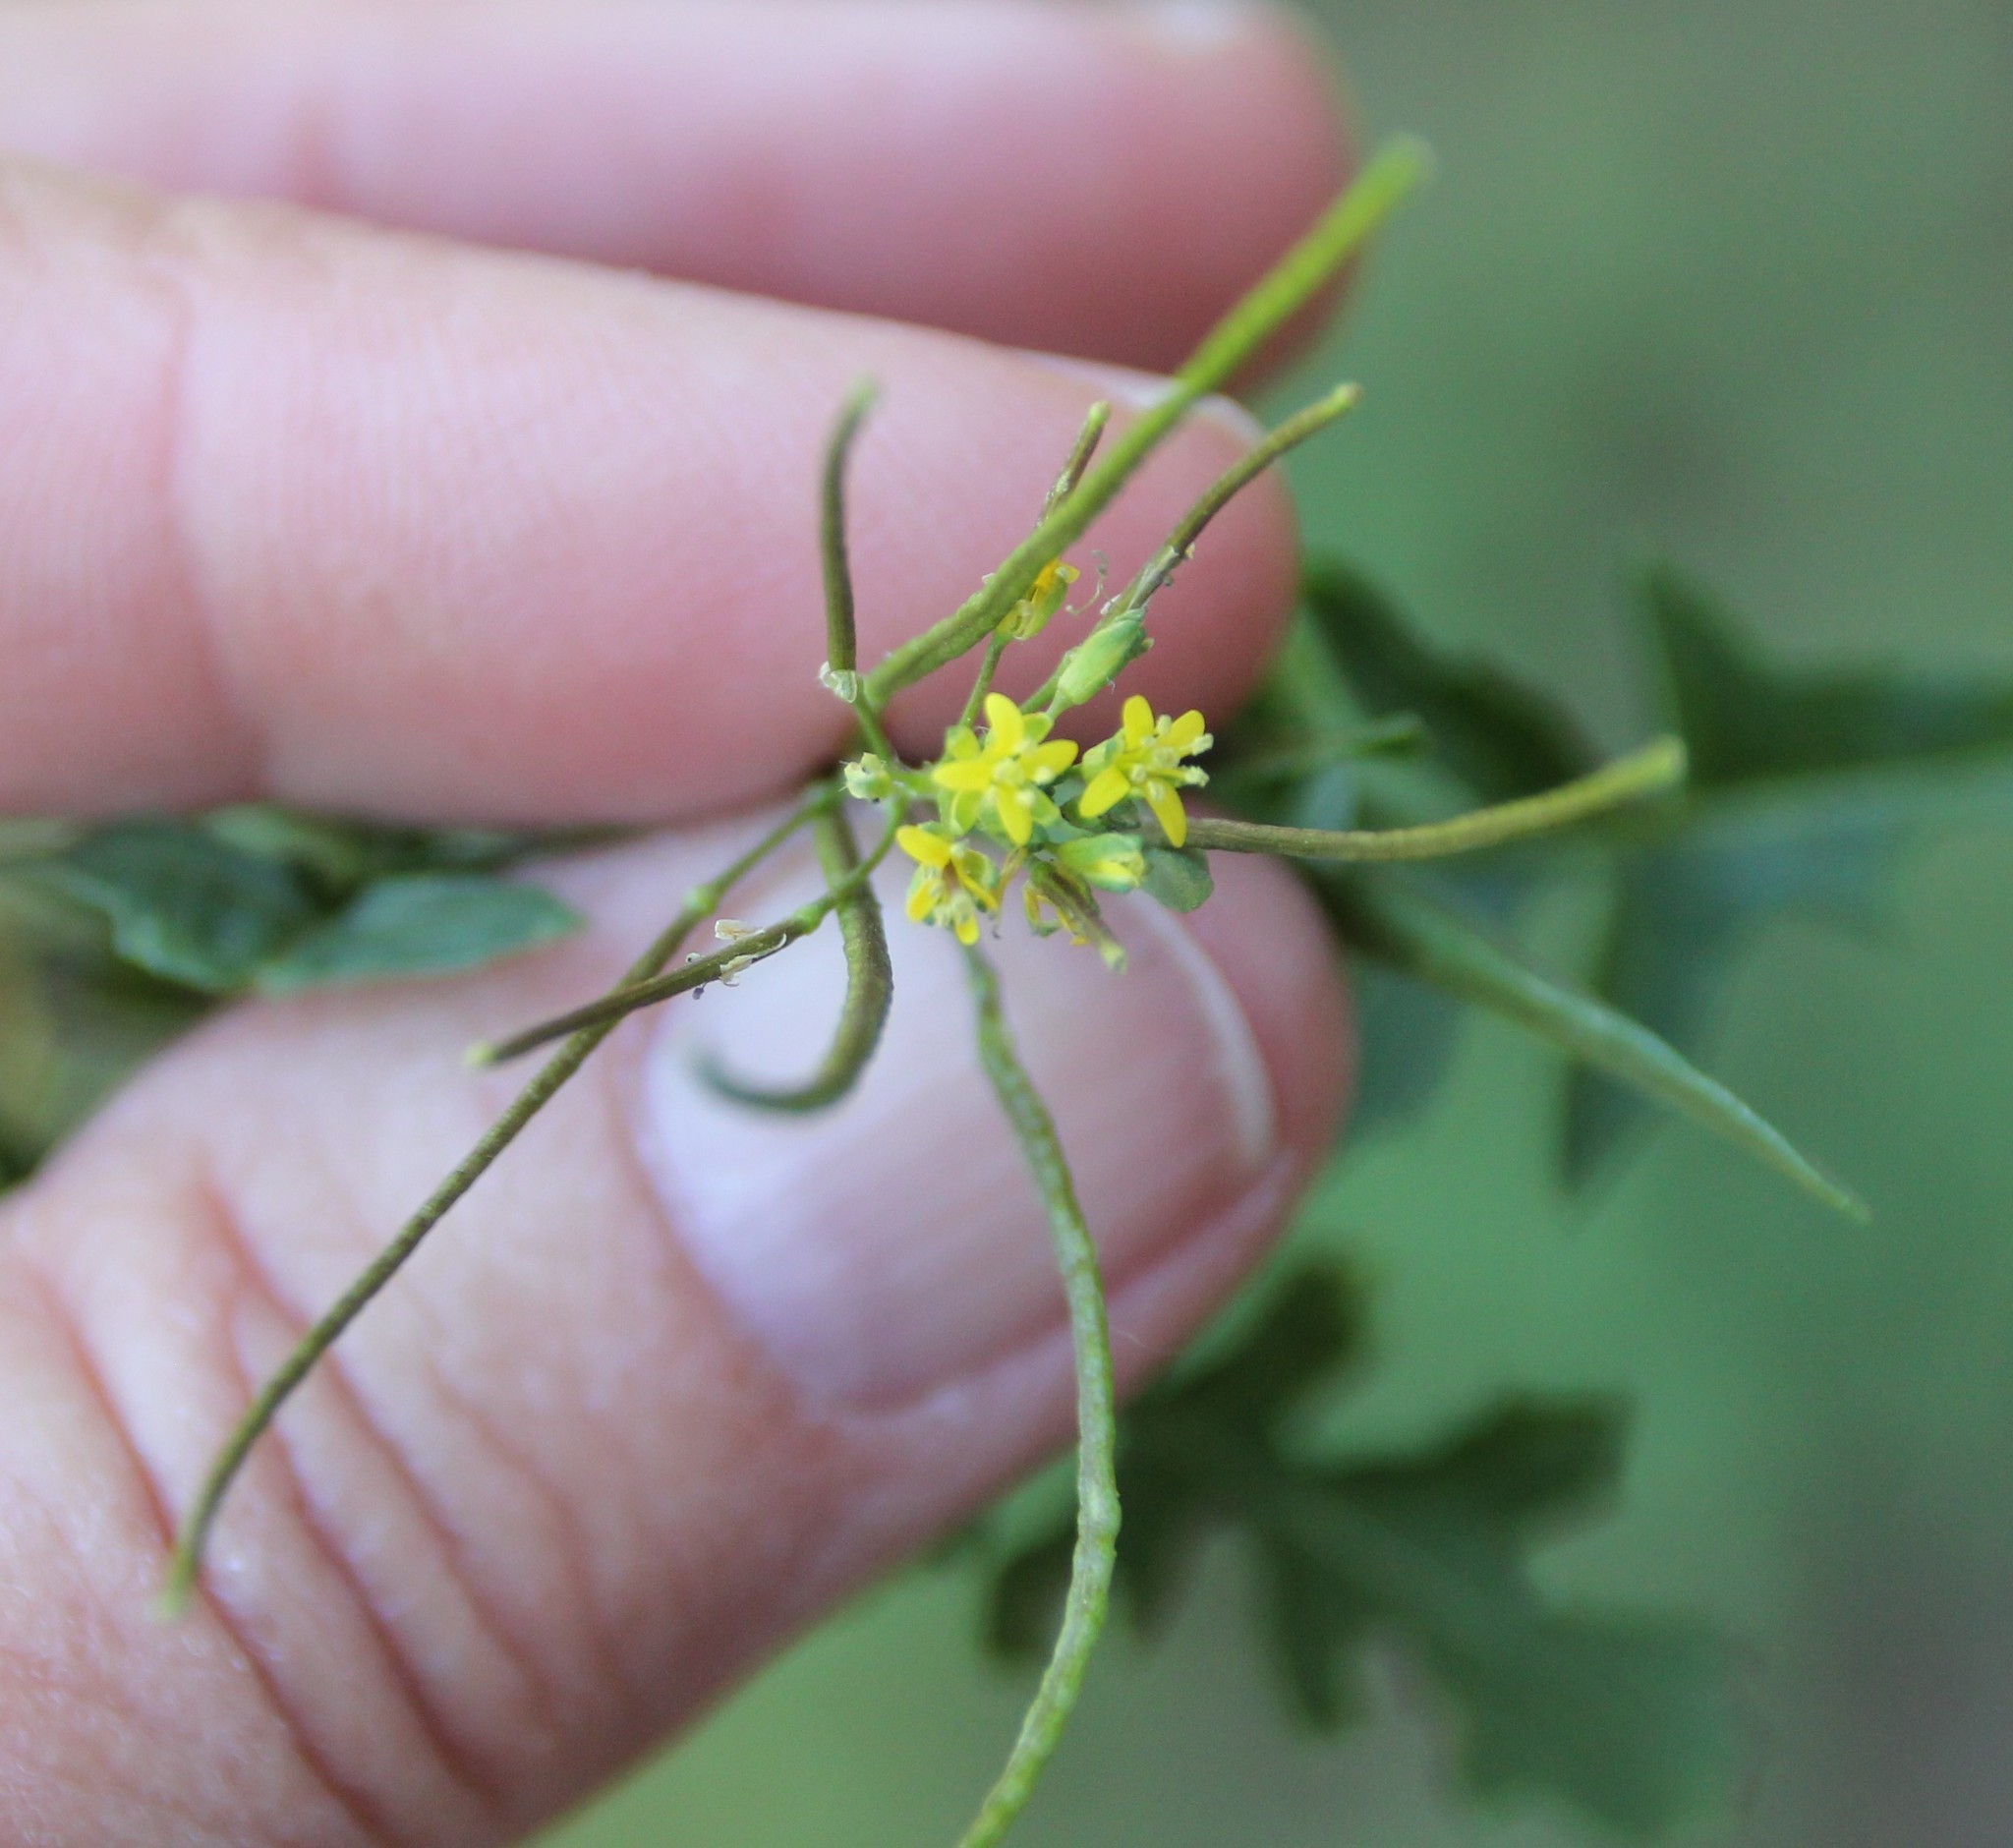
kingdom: Plantae
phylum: Tracheophyta
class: Magnoliopsida
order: Brassicales
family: Brassicaceae
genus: Sisymbrium
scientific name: Sisymbrium irio
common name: London rocket
